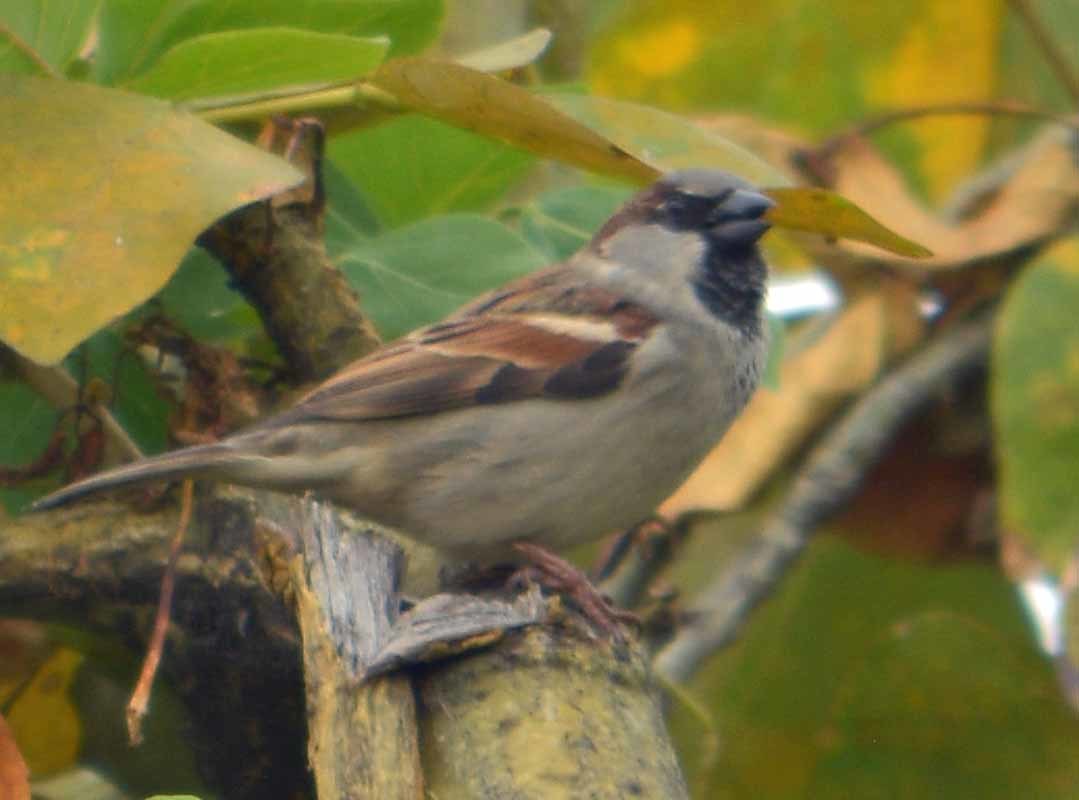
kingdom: Animalia
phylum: Chordata
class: Aves
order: Passeriformes
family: Passeridae
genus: Passer
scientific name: Passer domesticus
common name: House sparrow
